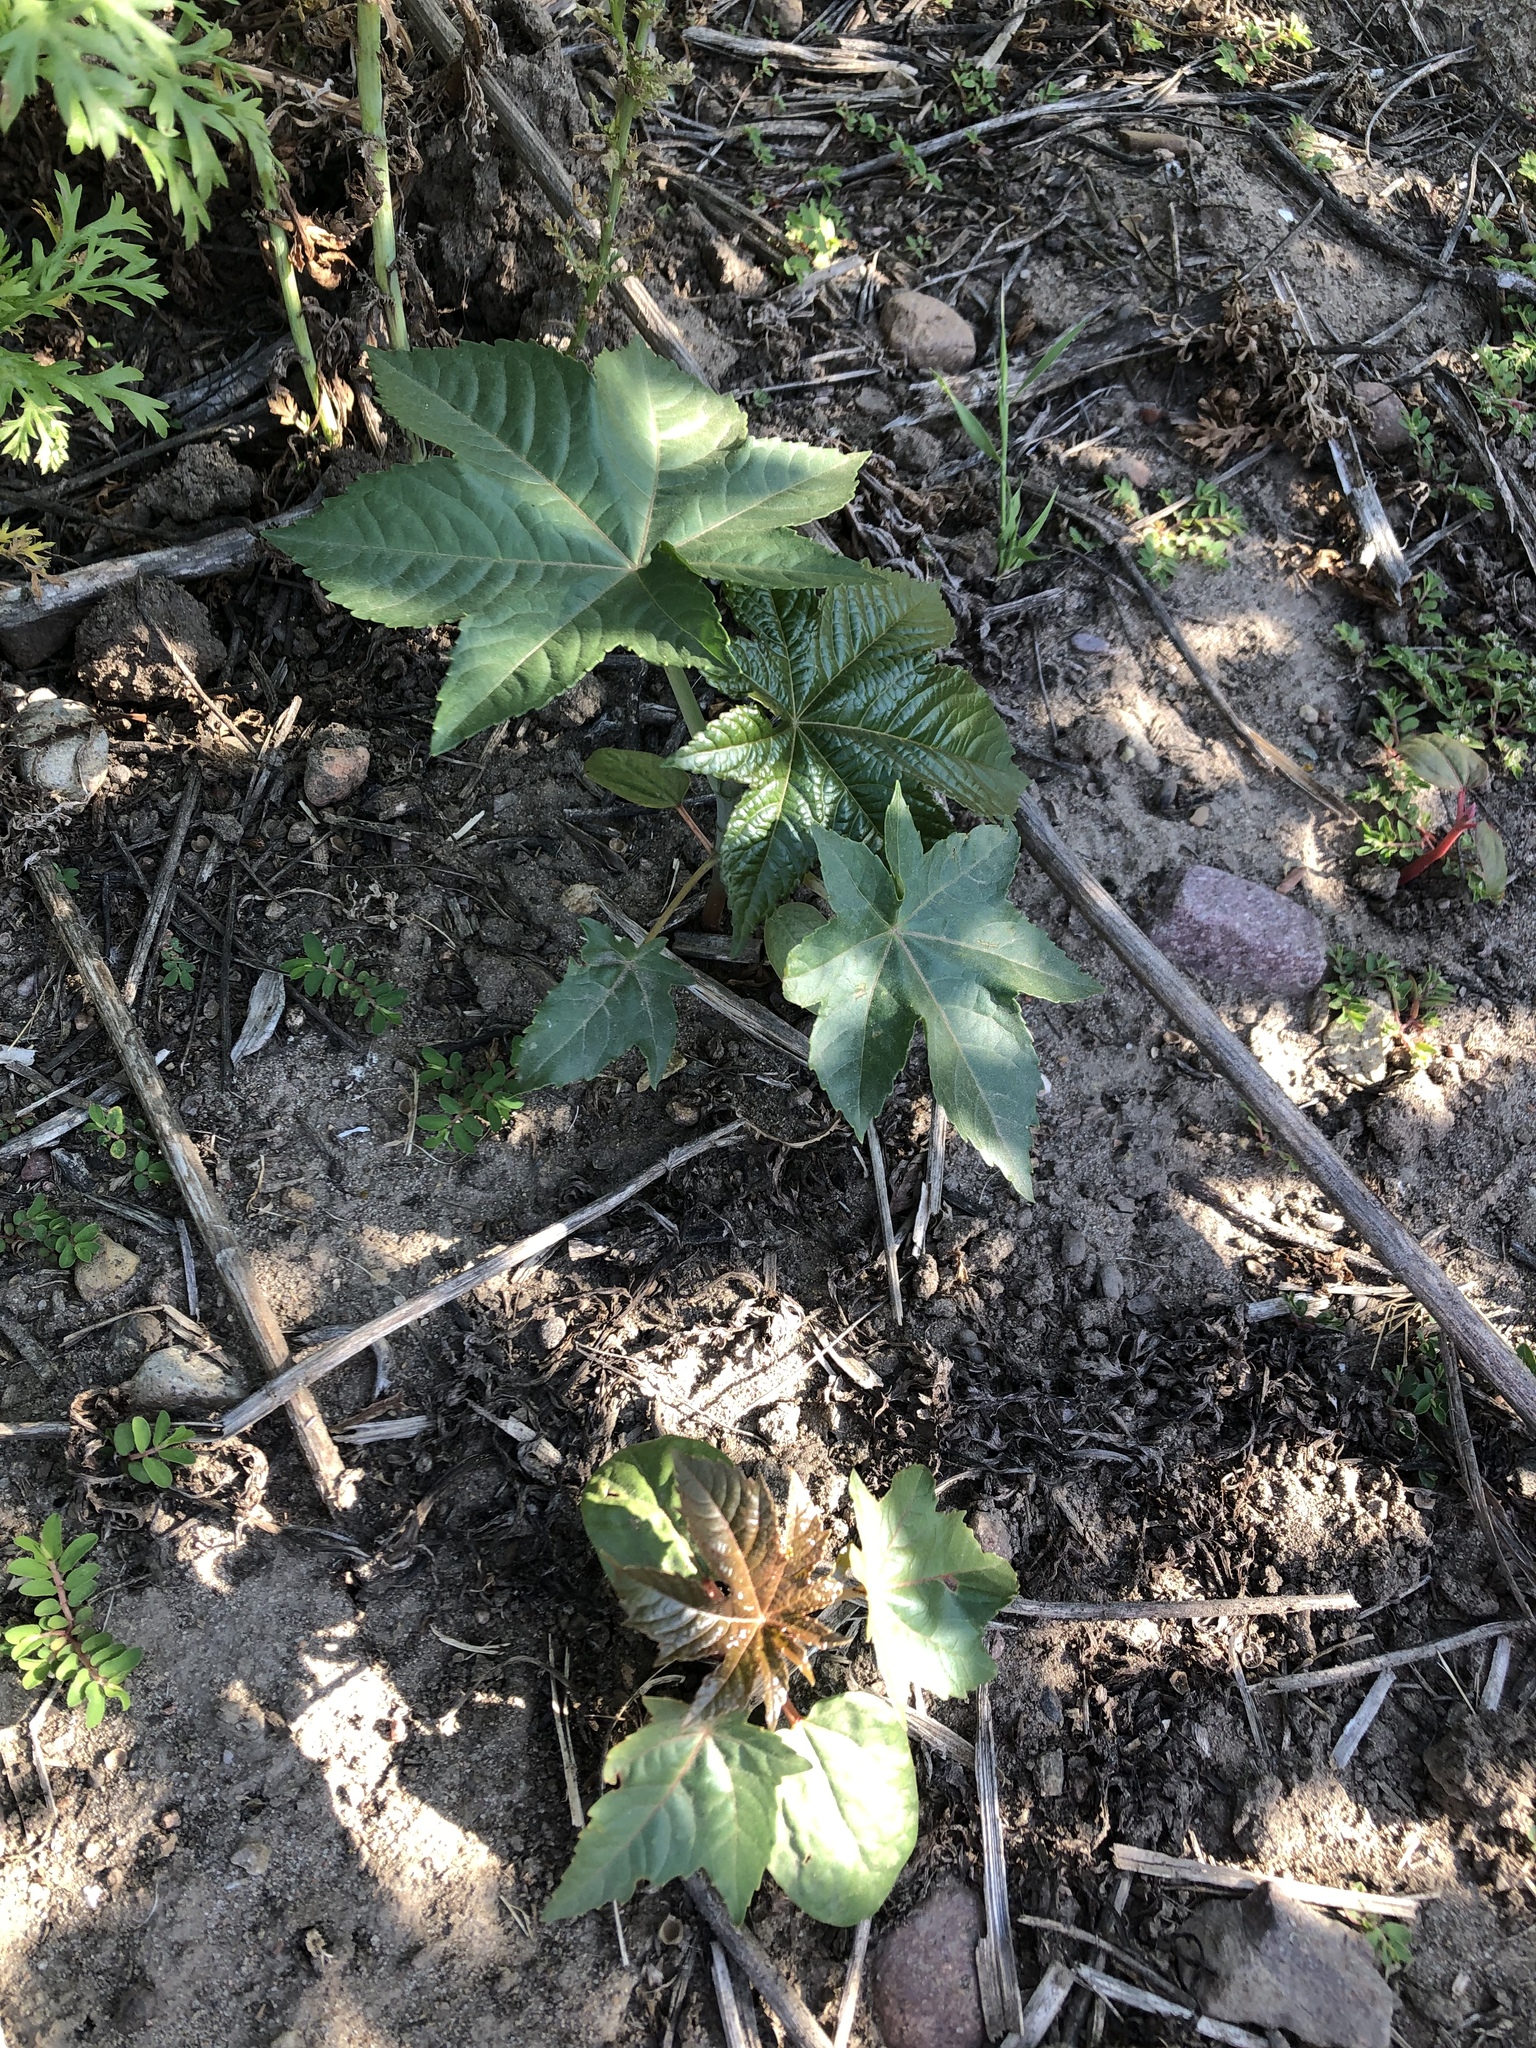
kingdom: Plantae
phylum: Tracheophyta
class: Magnoliopsida
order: Malpighiales
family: Euphorbiaceae
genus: Ricinus
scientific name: Ricinus communis
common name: Castor-oil-plant
